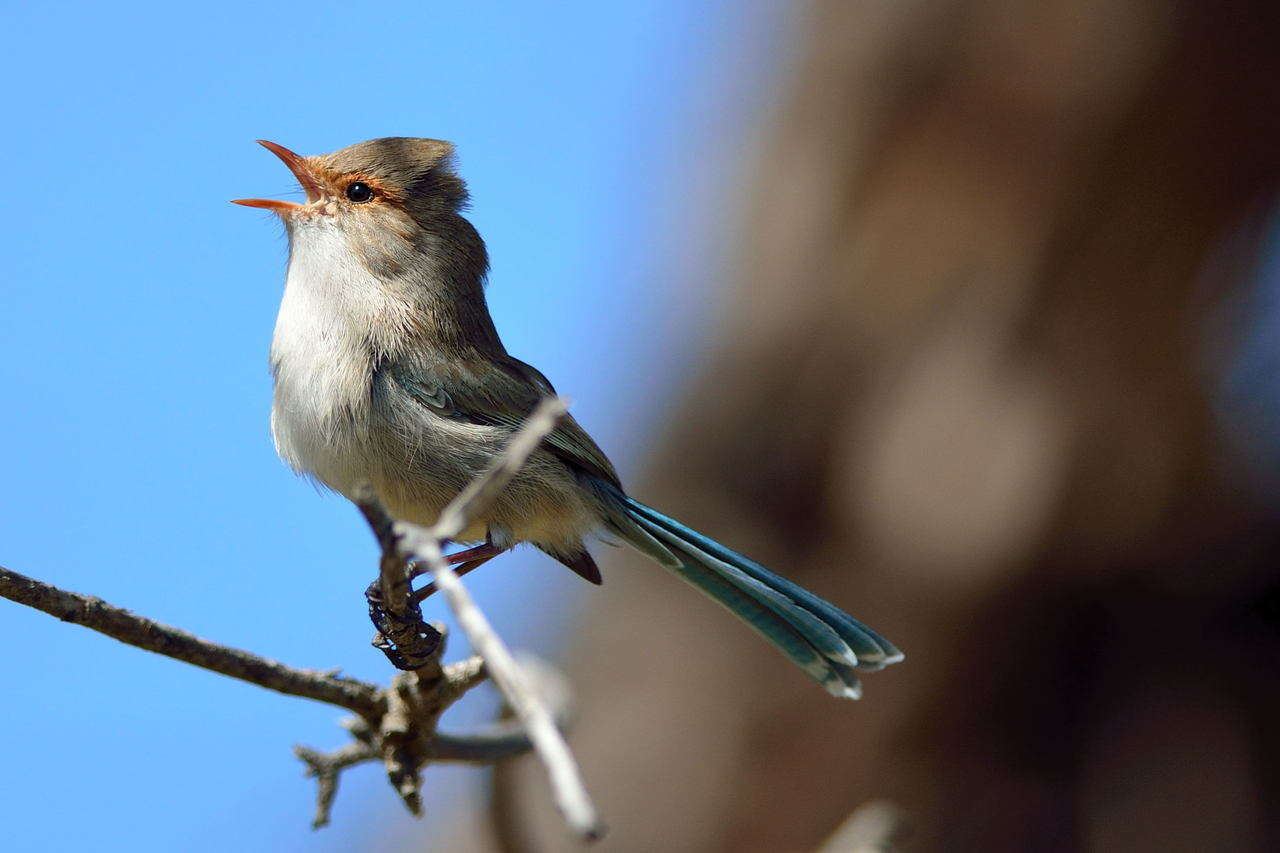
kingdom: Animalia
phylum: Chordata
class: Aves
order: Passeriformes
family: Maluridae
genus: Malurus
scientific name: Malurus splendens
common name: Splendid fairywren
